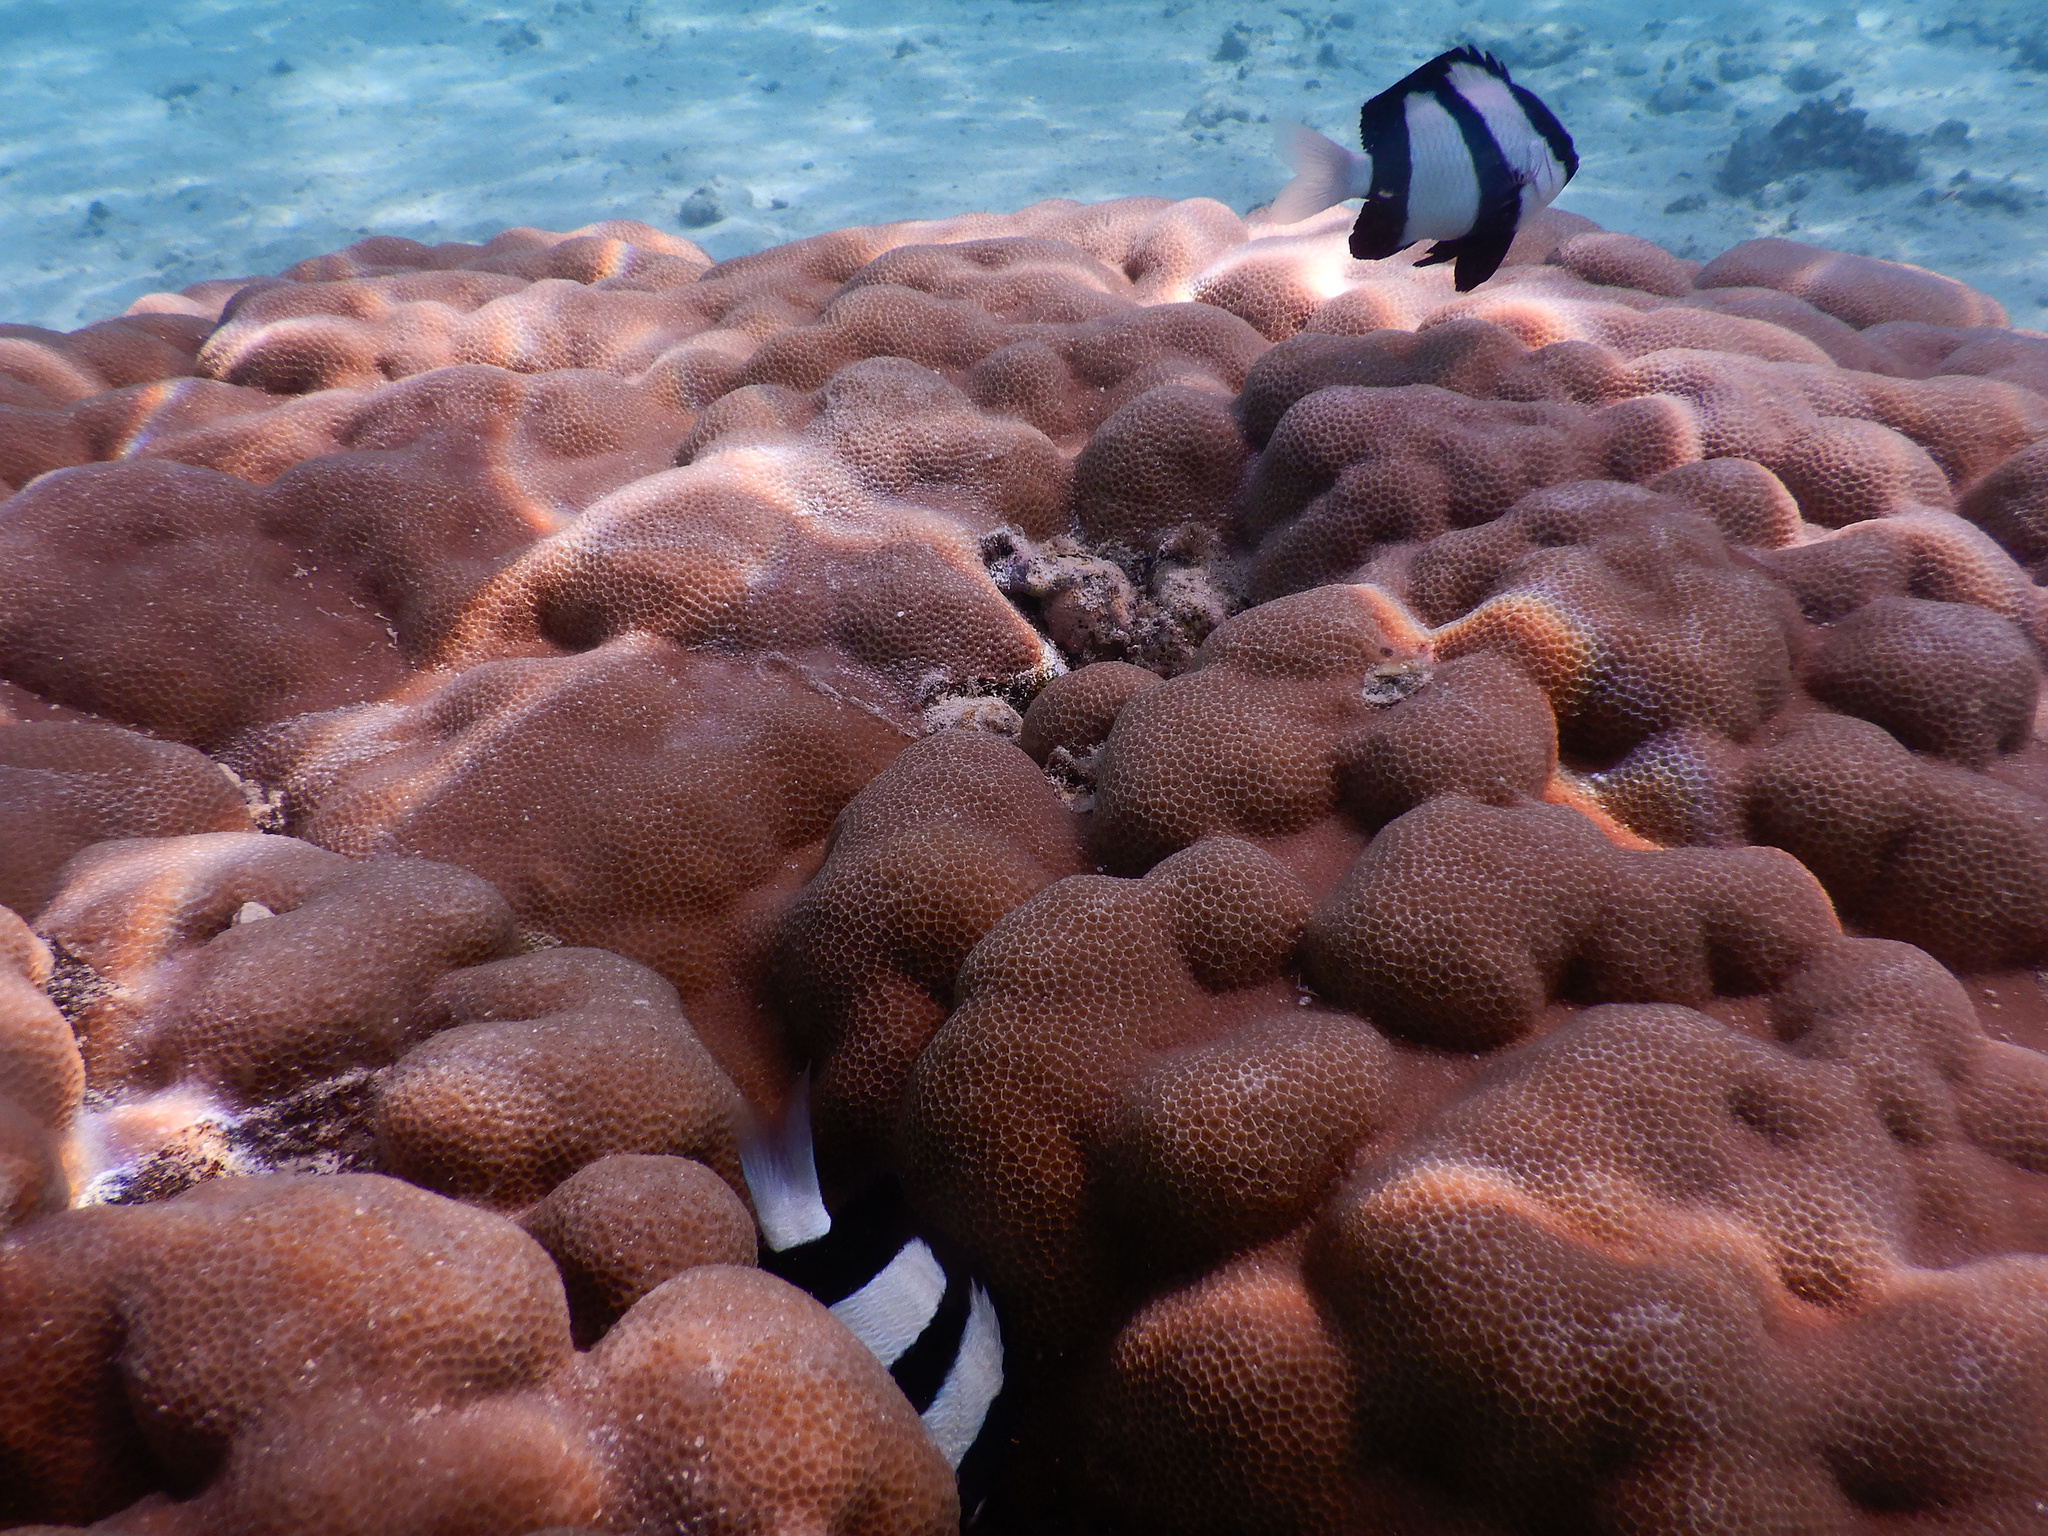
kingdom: Animalia
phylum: Chordata
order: Perciformes
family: Pomacentridae
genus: Dascyllus
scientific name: Dascyllus aruanus
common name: Humbug dascyllus
